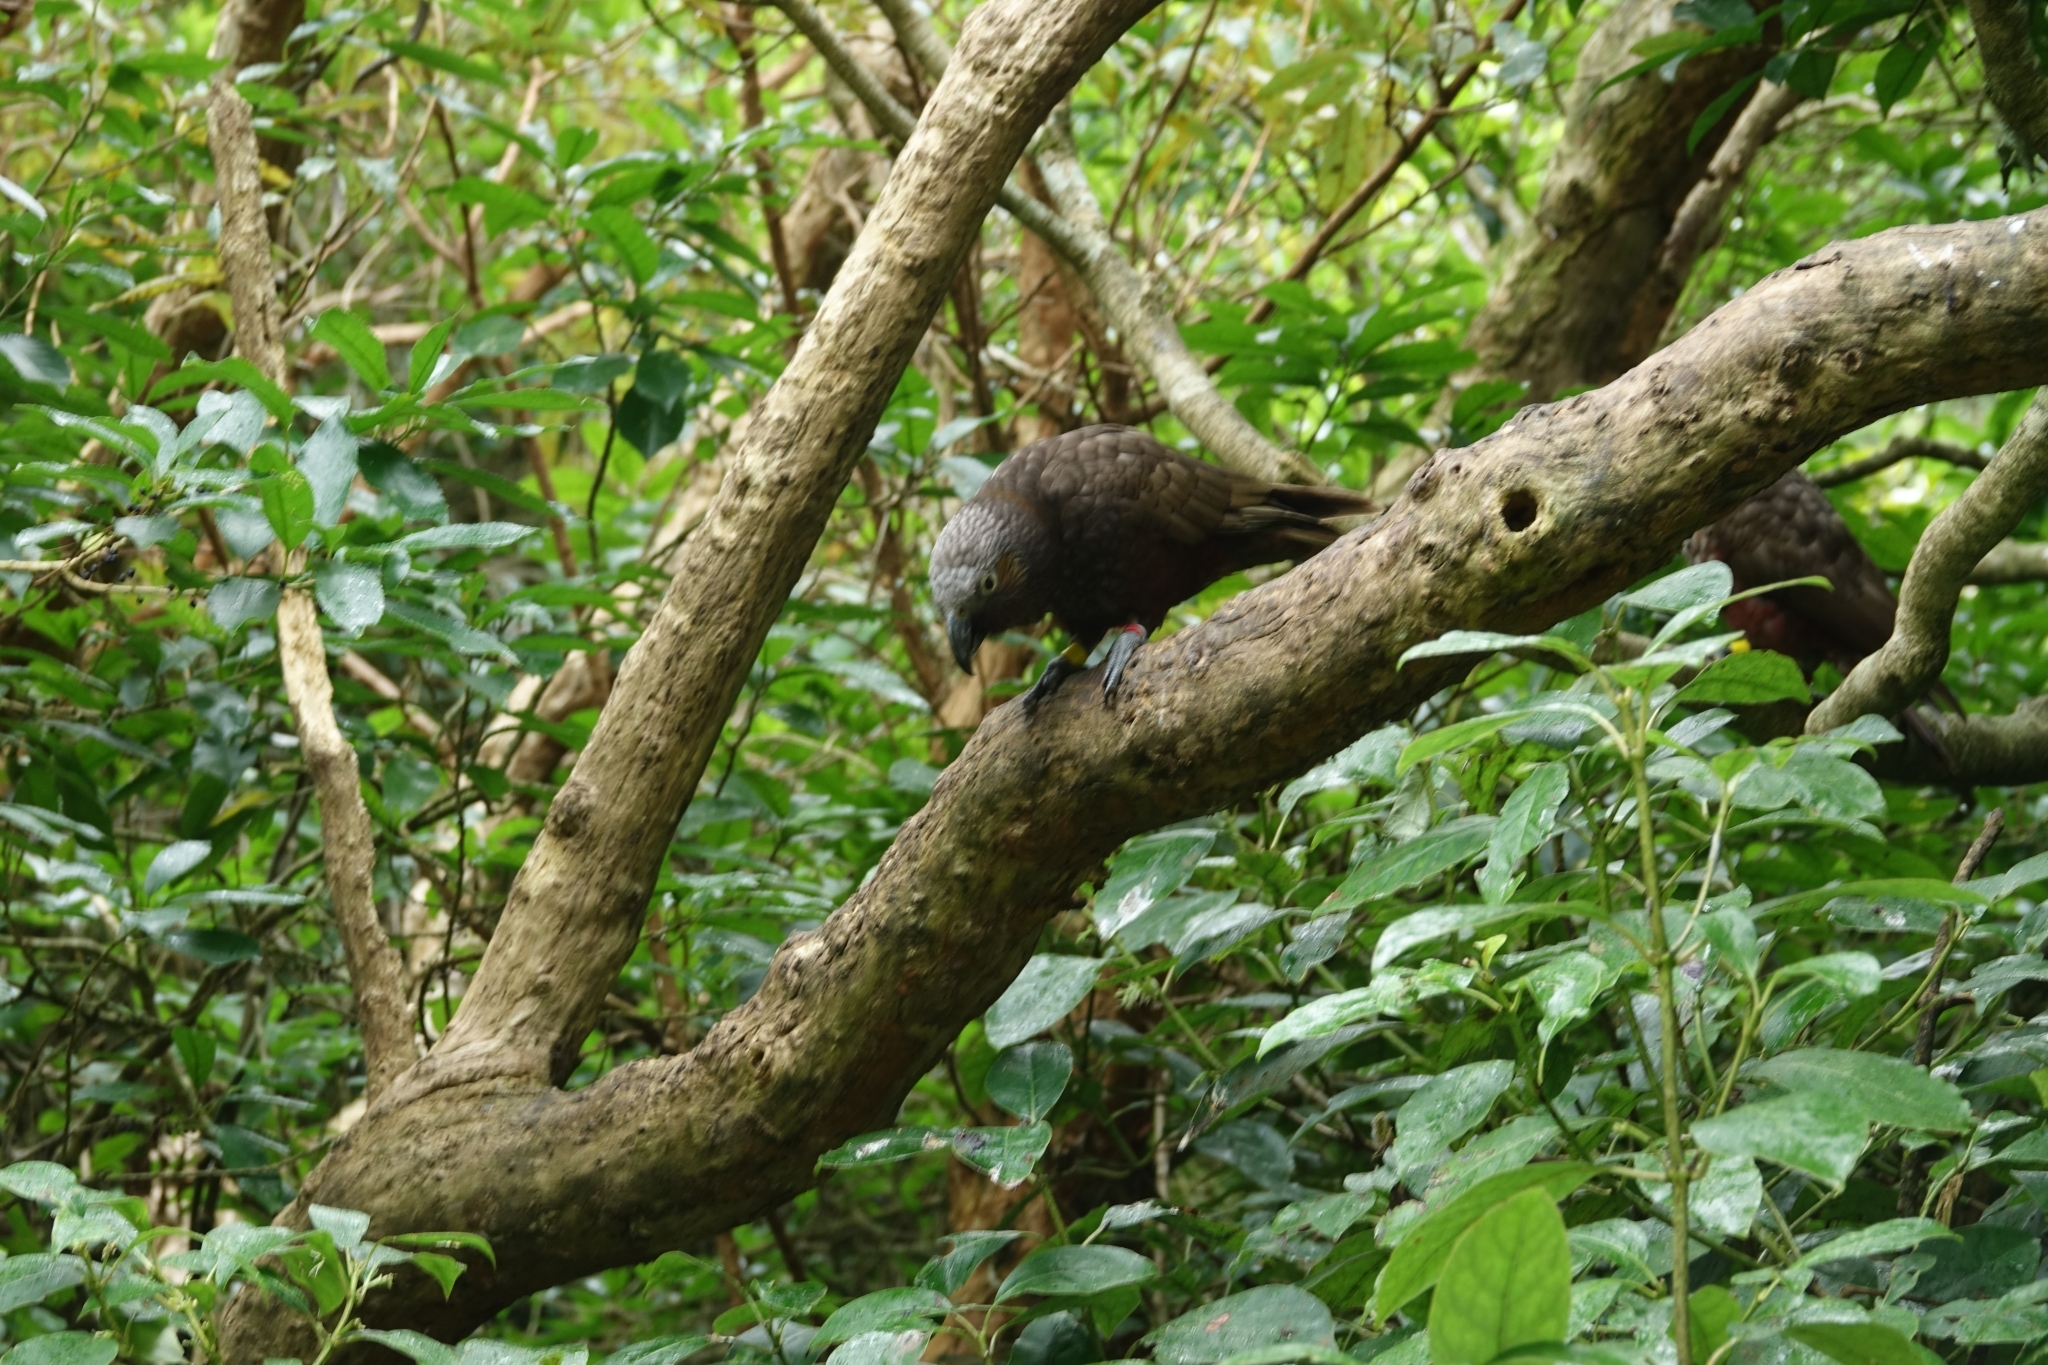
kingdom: Animalia
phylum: Chordata
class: Aves
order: Psittaciformes
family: Psittacidae
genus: Nestor
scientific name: Nestor meridionalis
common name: New zealand kaka
